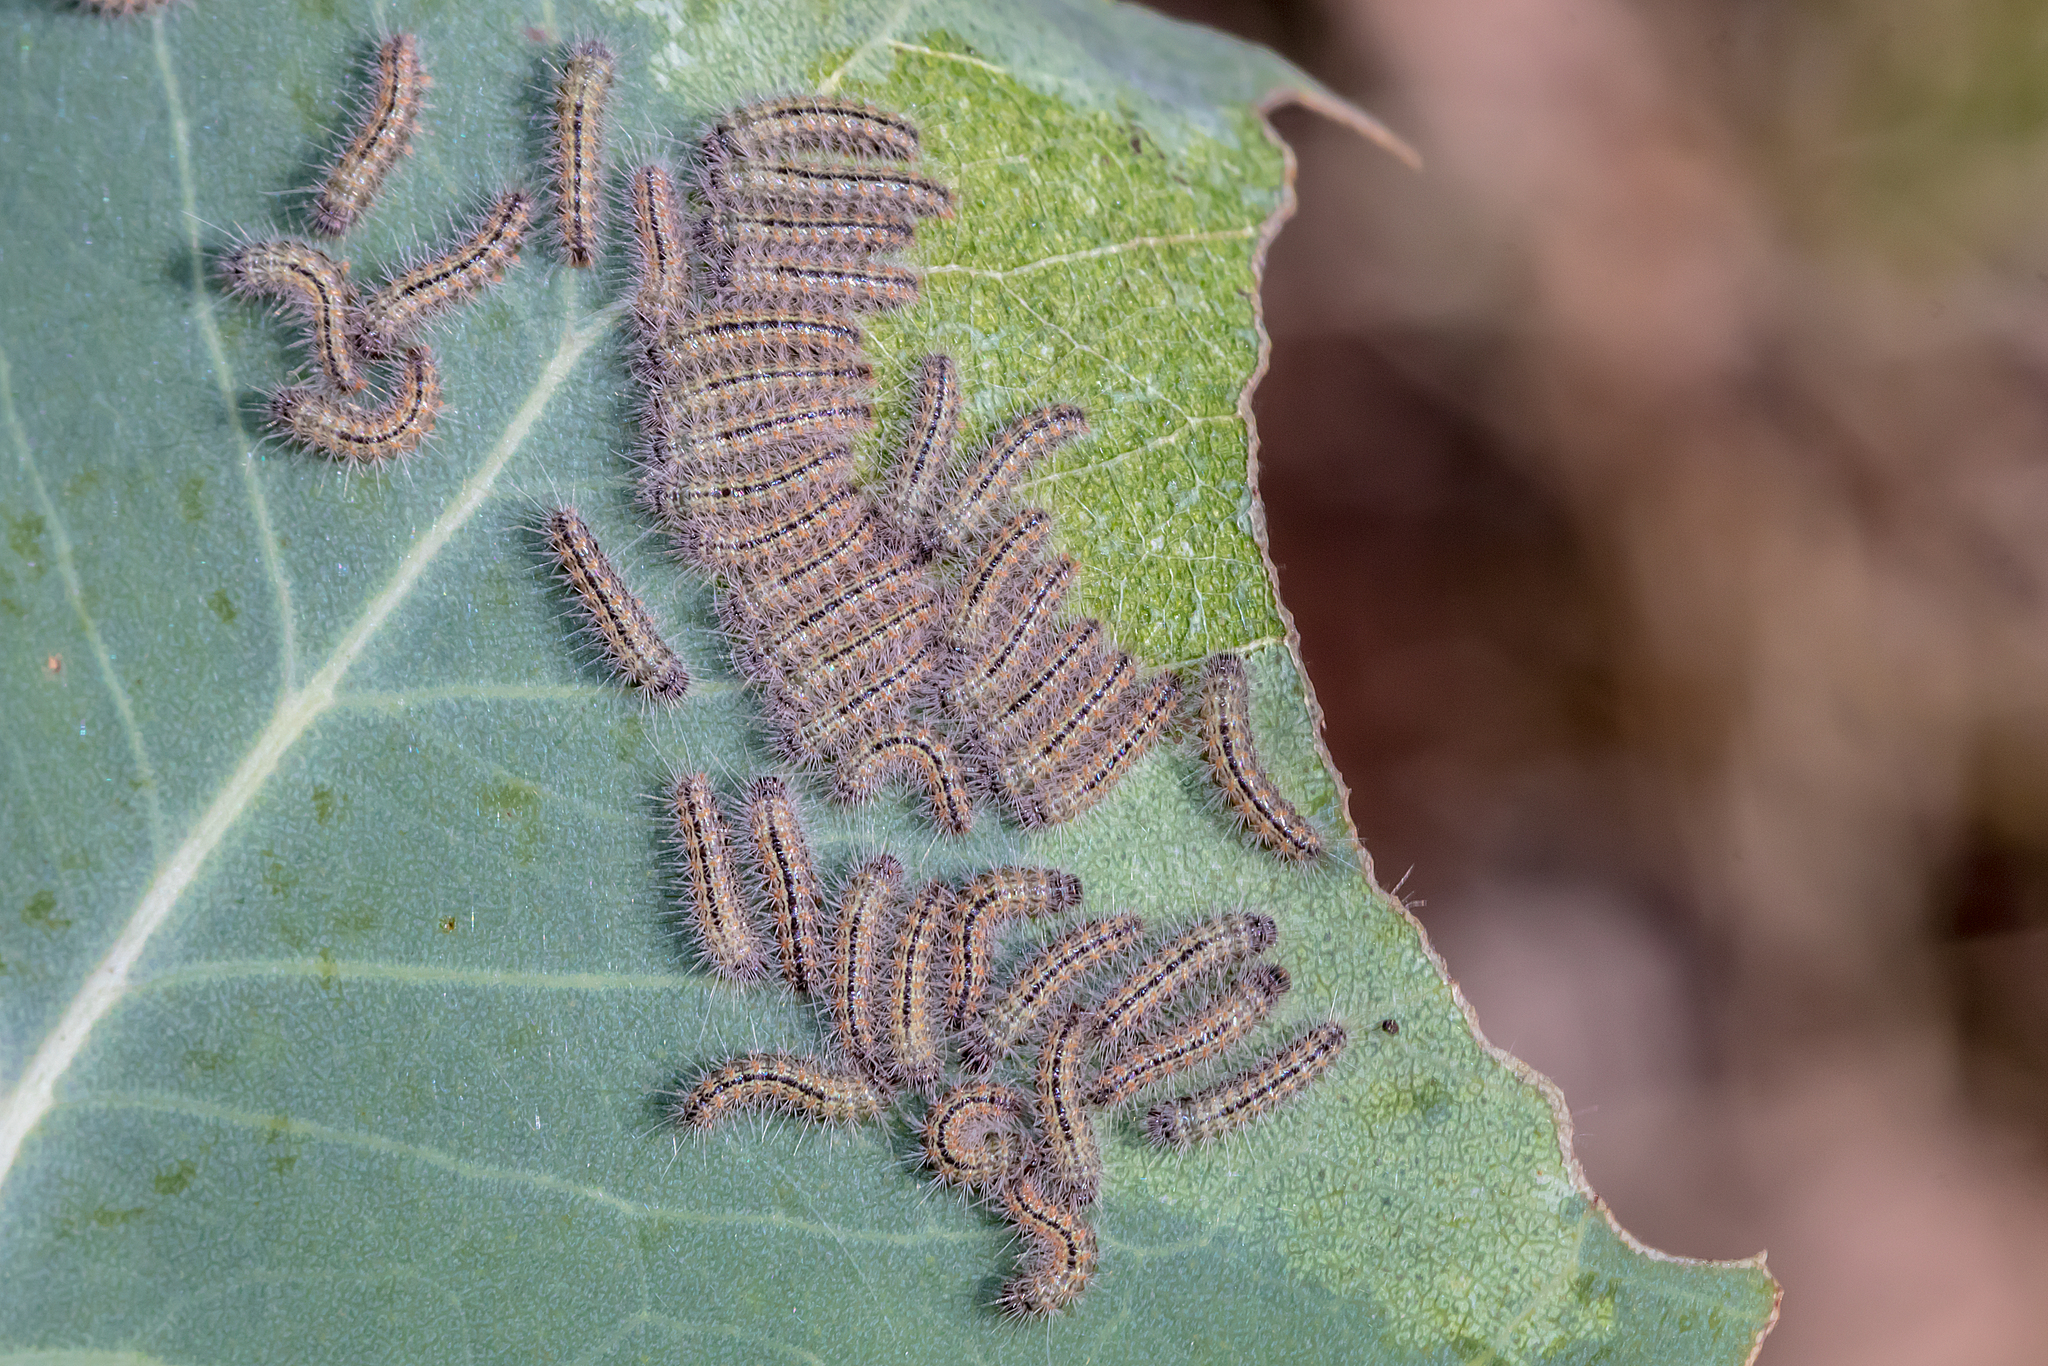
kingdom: Animalia
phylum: Arthropoda
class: Insecta
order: Lepidoptera
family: Nolidae
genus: Uraba
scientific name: Uraba lugens
